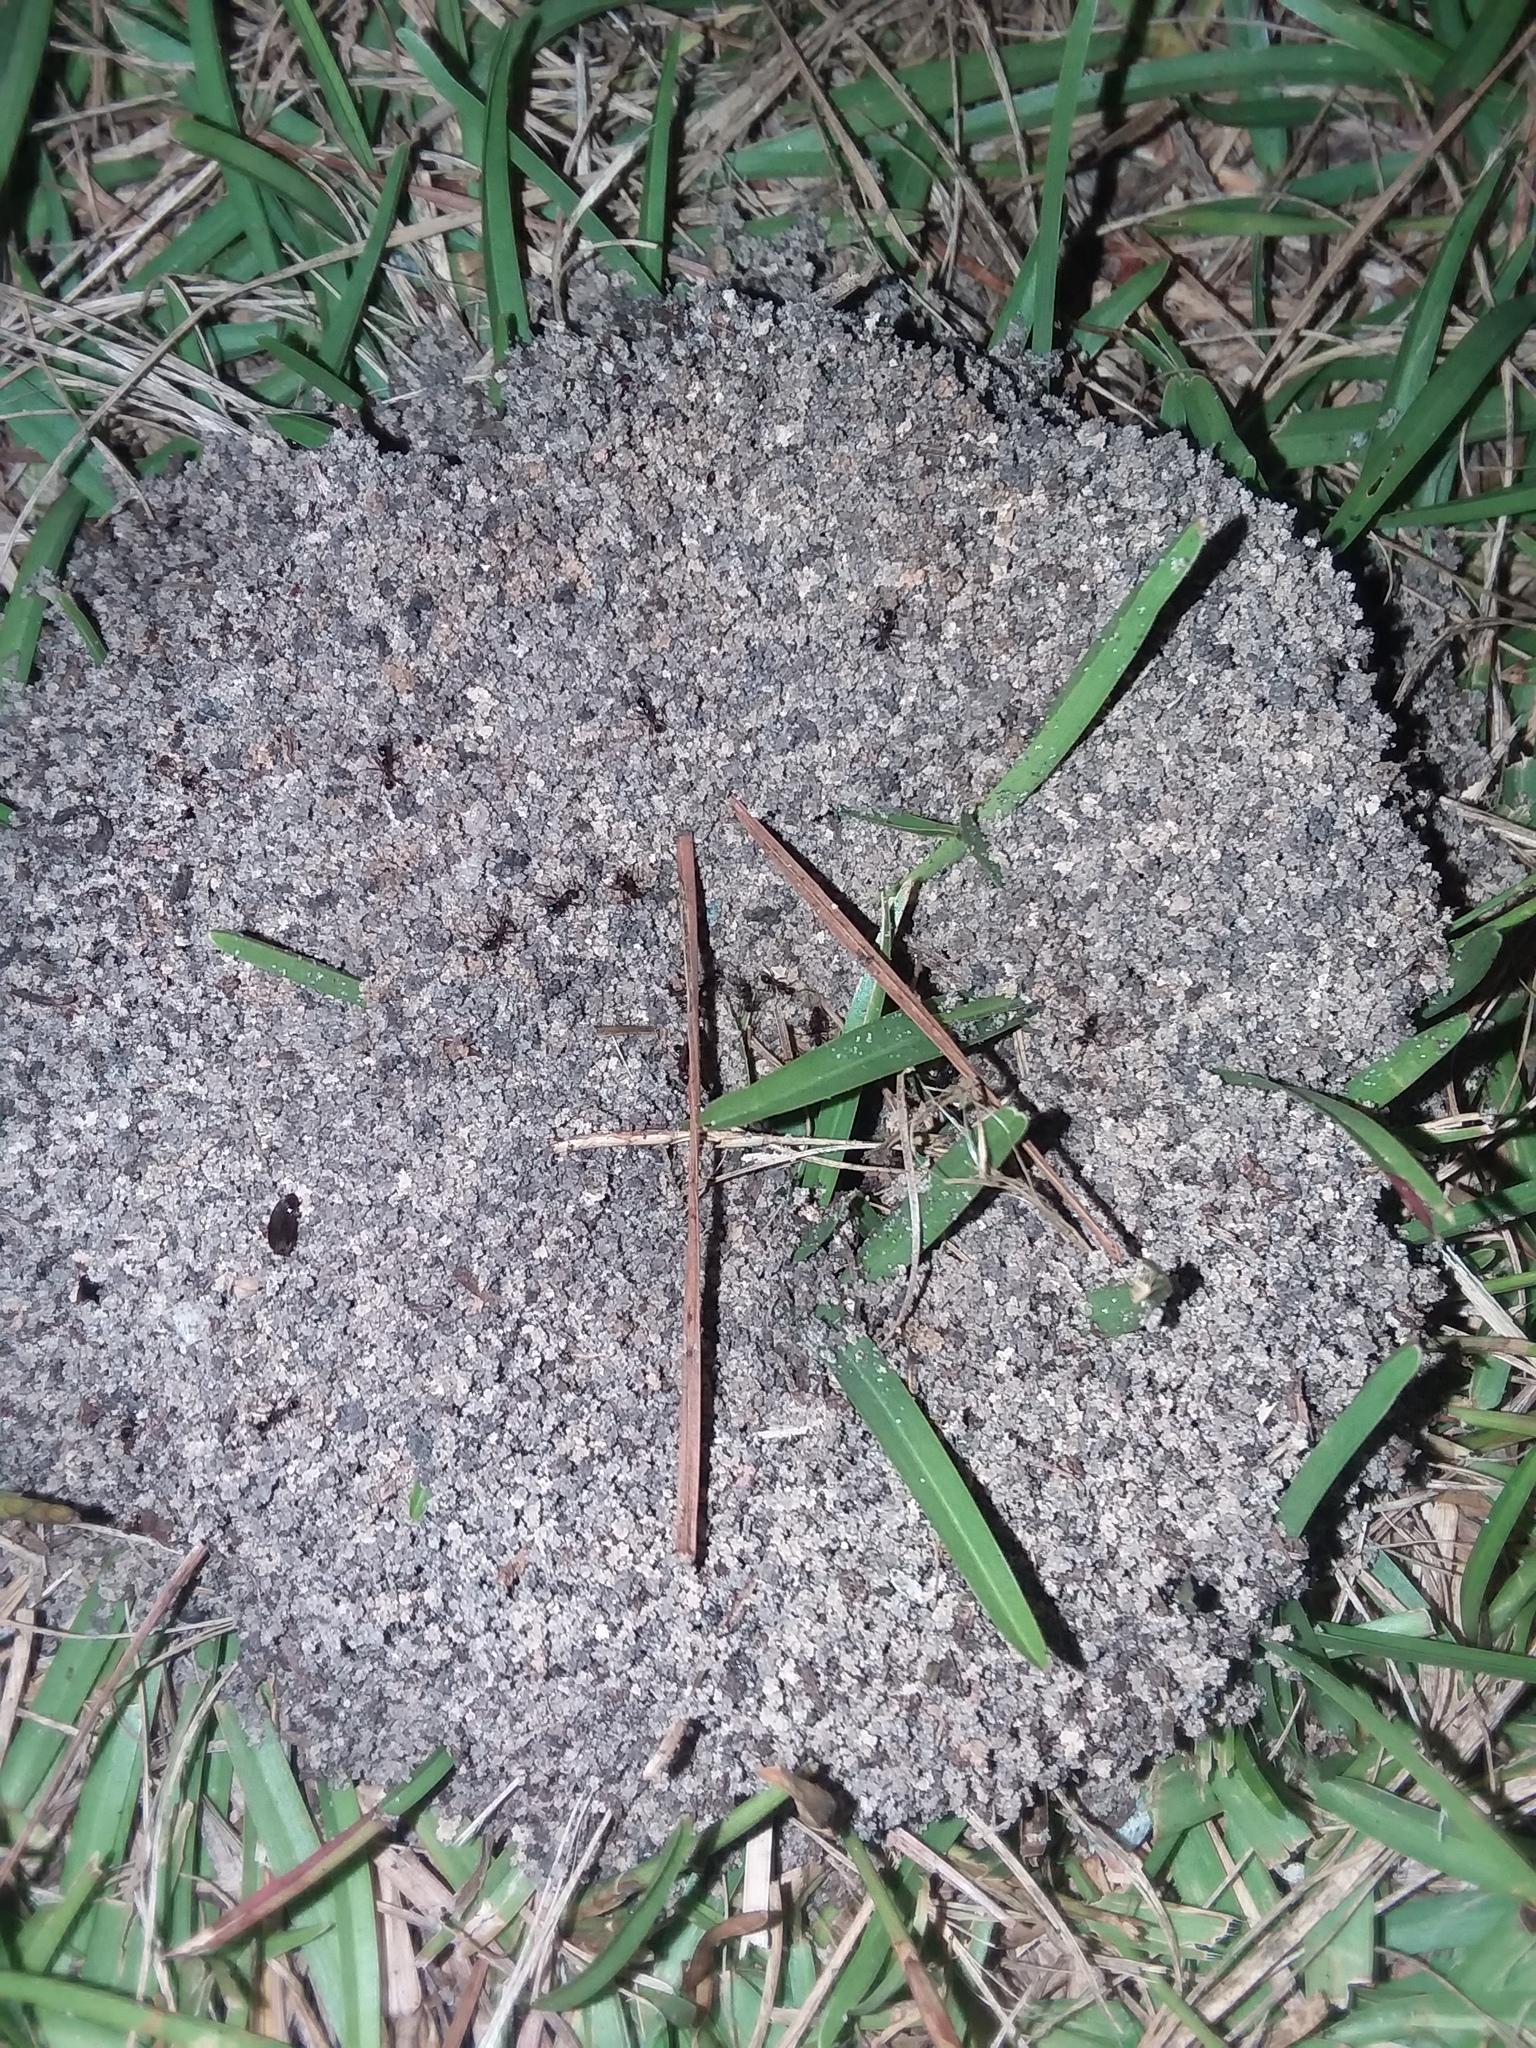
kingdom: Animalia
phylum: Arthropoda
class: Insecta
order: Hymenoptera
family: Formicidae
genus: Pheidole
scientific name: Pheidole obscurithorax
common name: Obscure big-headed ant
